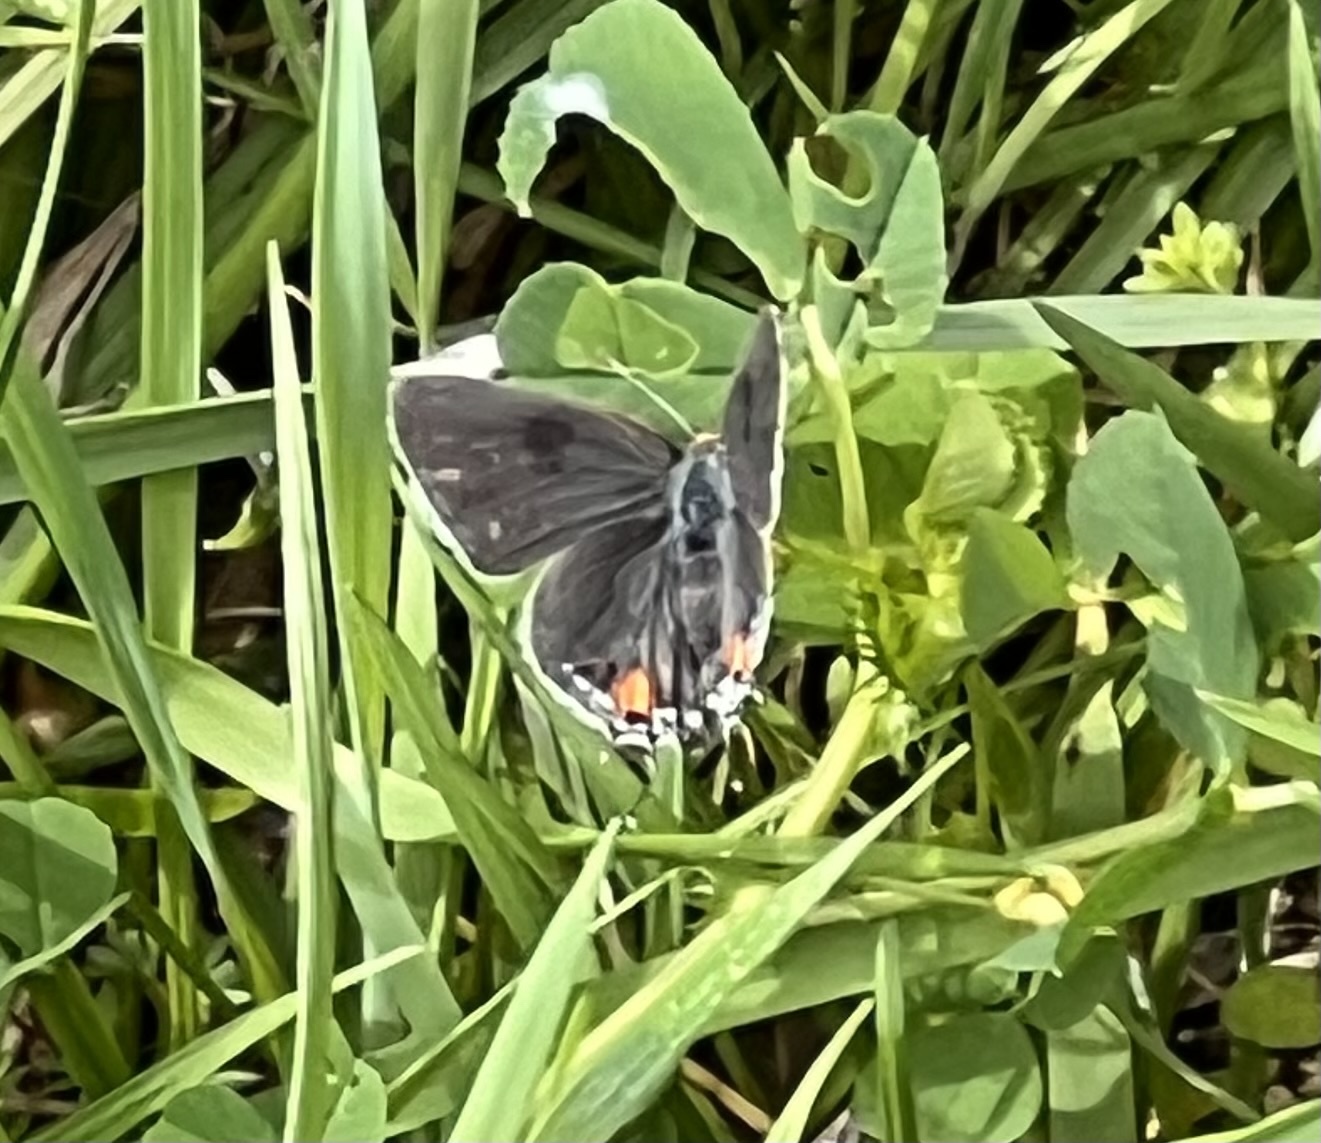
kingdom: Animalia
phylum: Arthropoda
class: Insecta
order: Lepidoptera
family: Lycaenidae
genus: Strymon
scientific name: Strymon melinus
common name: Gray hairstreak
